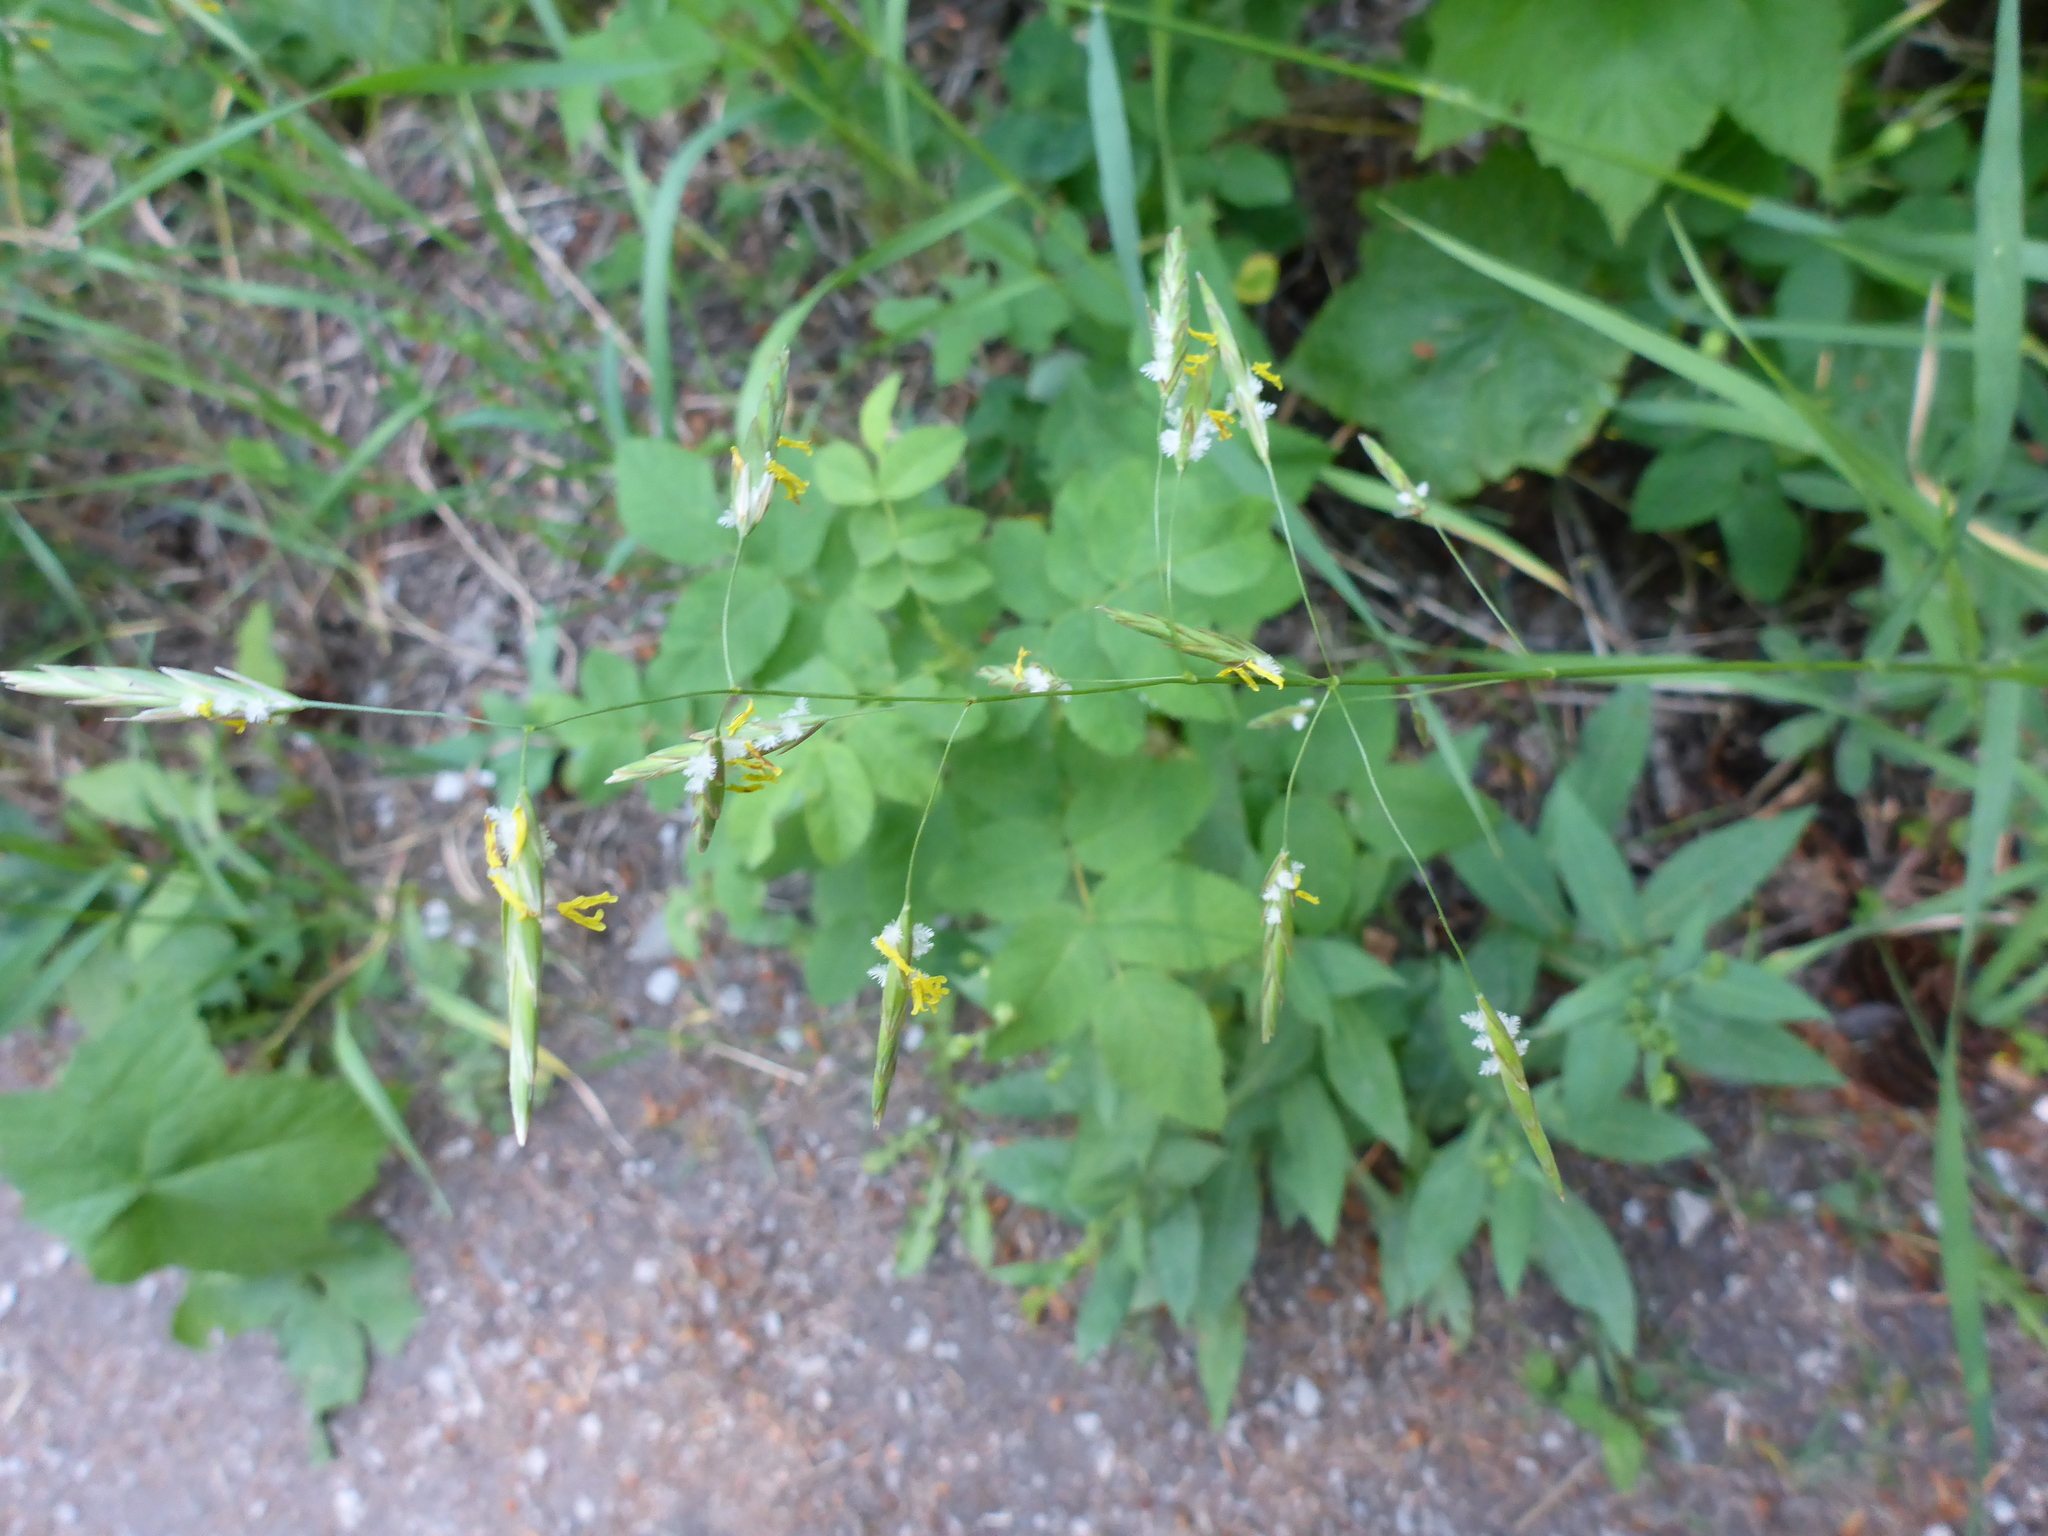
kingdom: Plantae
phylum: Tracheophyta
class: Liliopsida
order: Poales
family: Poaceae
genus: Bromus
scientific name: Bromus inermis
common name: Smooth brome
